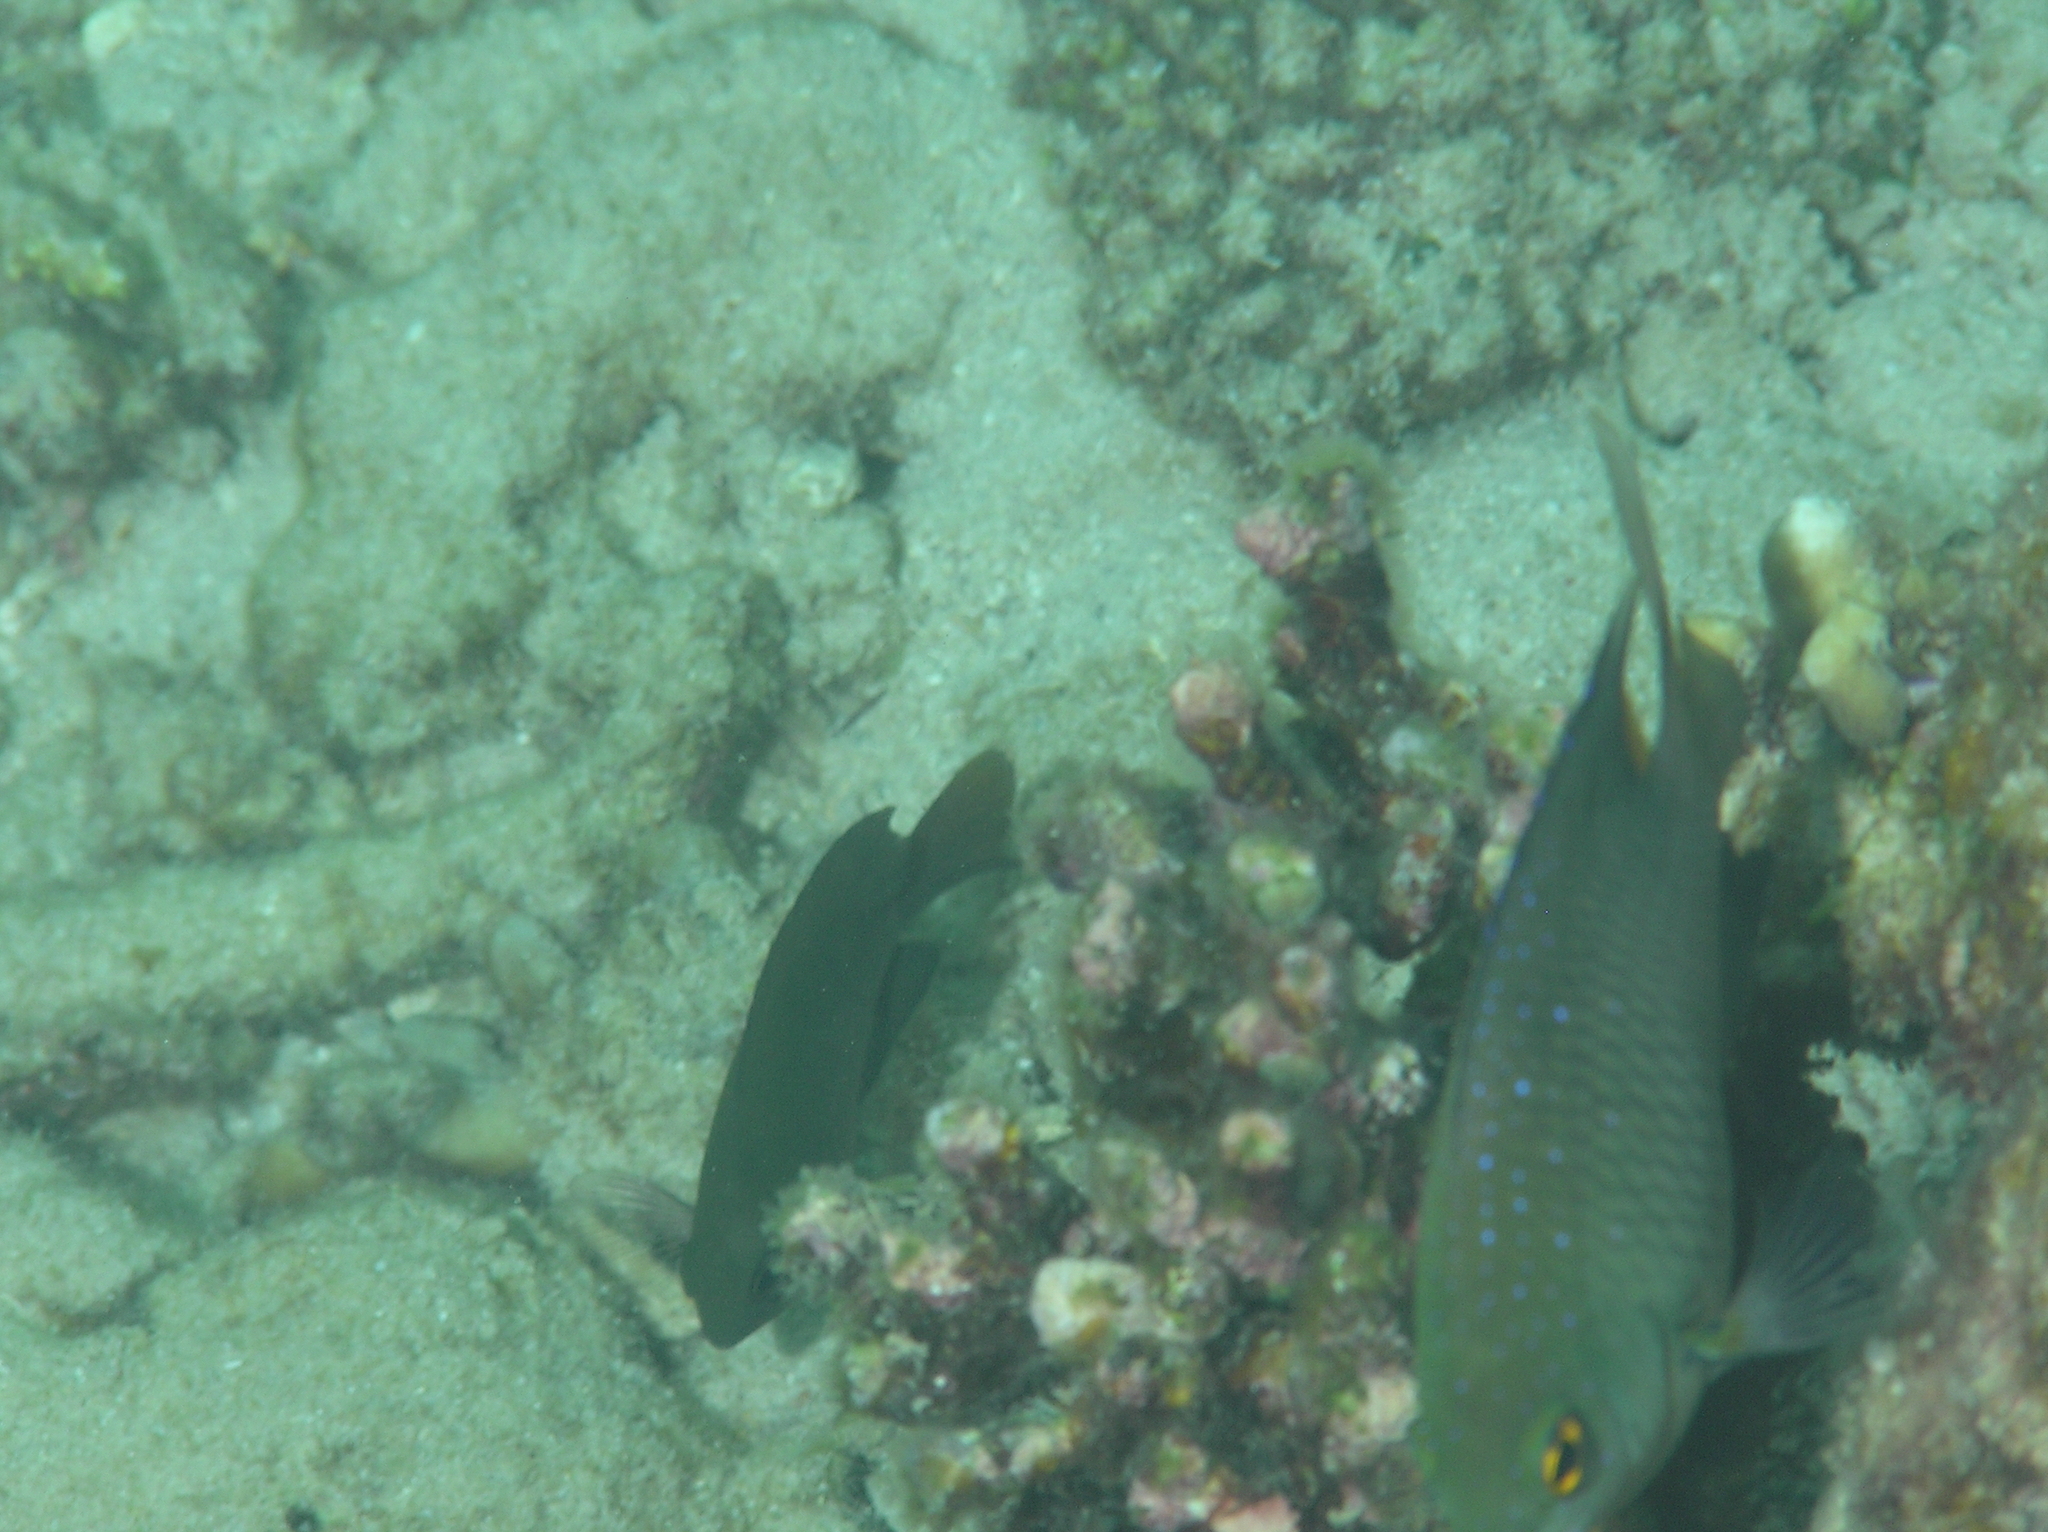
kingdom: Animalia
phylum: Chordata
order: Perciformes
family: Pomacentridae
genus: Plectroglyphidodon
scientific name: Plectroglyphidodon lacrymatus
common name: Jewel damsel
